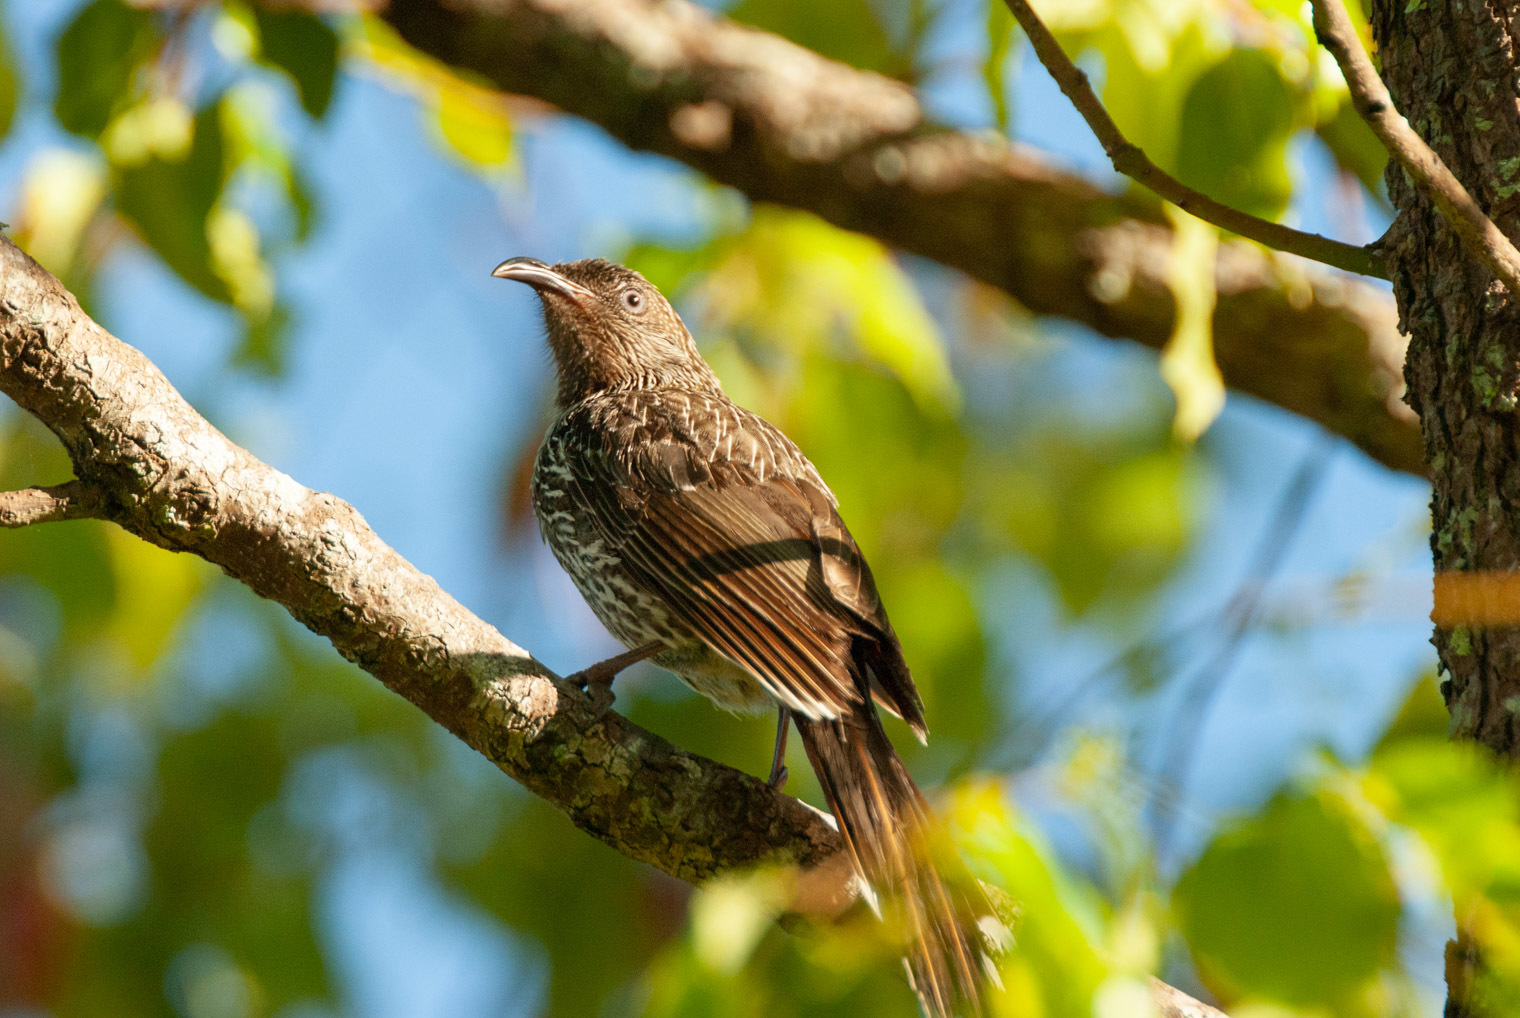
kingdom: Animalia
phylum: Chordata
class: Aves
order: Passeriformes
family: Meliphagidae
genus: Anthochaera
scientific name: Anthochaera chrysoptera
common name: Little wattlebird
